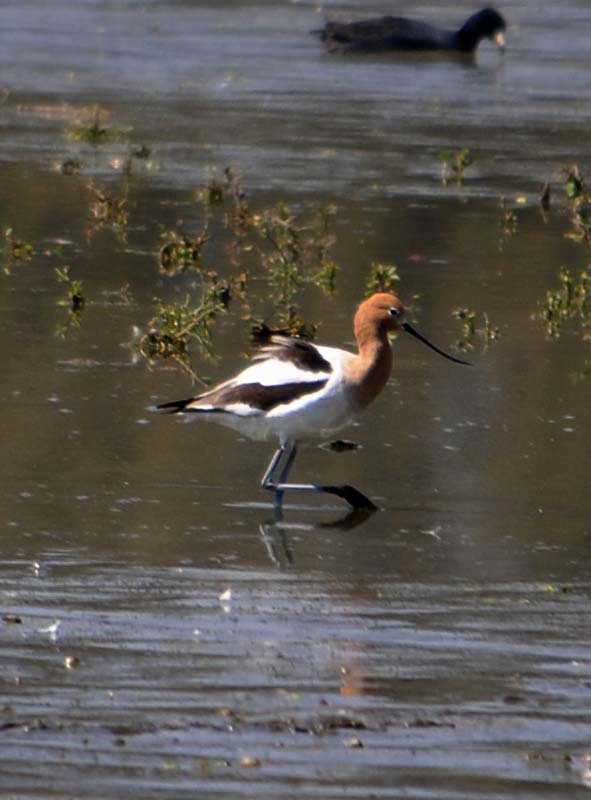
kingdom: Animalia
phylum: Chordata
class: Aves
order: Charadriiformes
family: Recurvirostridae
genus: Recurvirostra
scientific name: Recurvirostra americana
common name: American avocet
